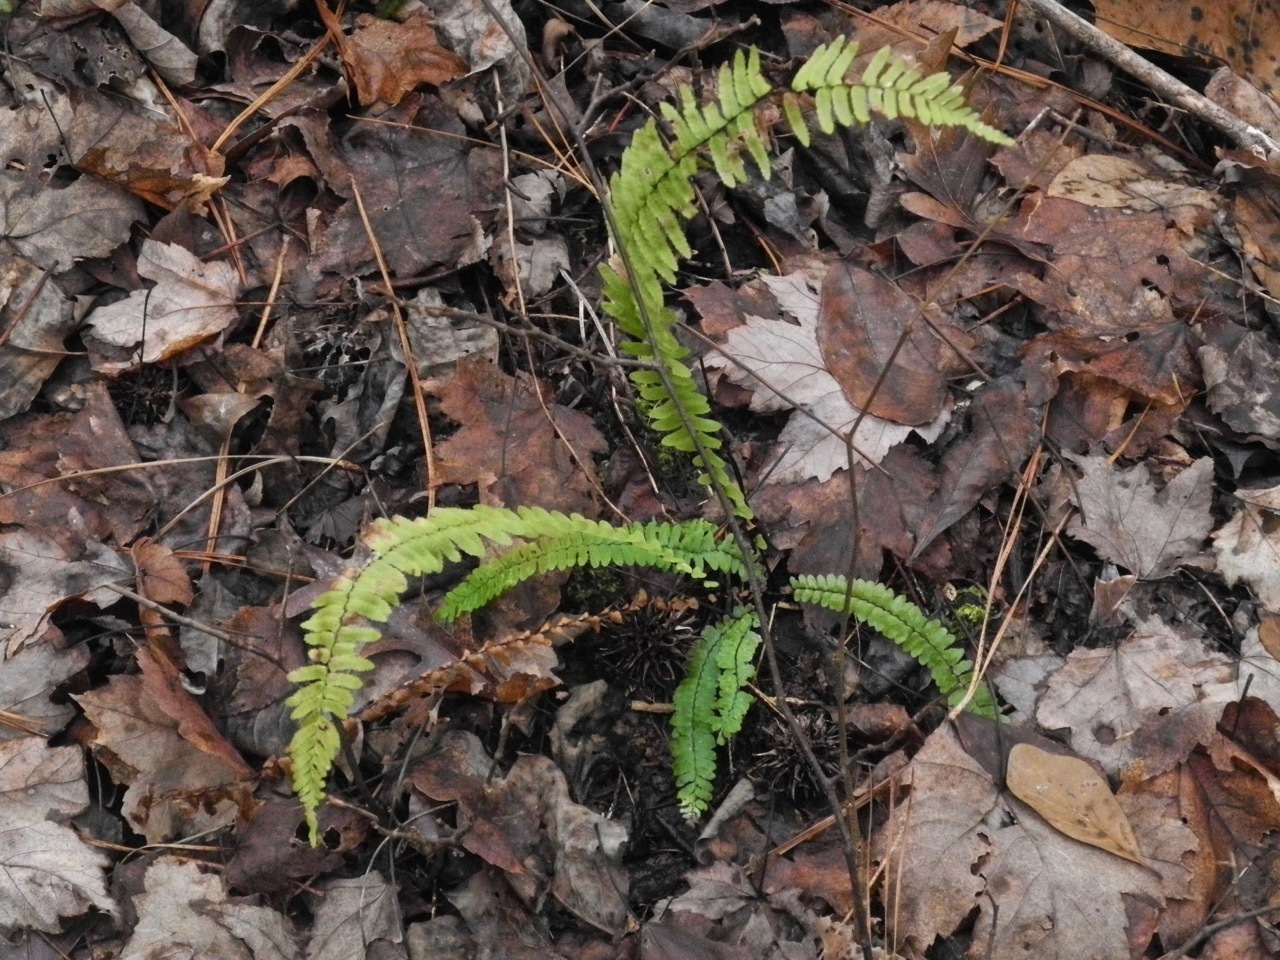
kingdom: Plantae
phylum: Tracheophyta
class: Polypodiopsida
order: Polypodiales
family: Aspleniaceae
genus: Asplenium
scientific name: Asplenium platyneuron
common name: Ebony spleenwort
